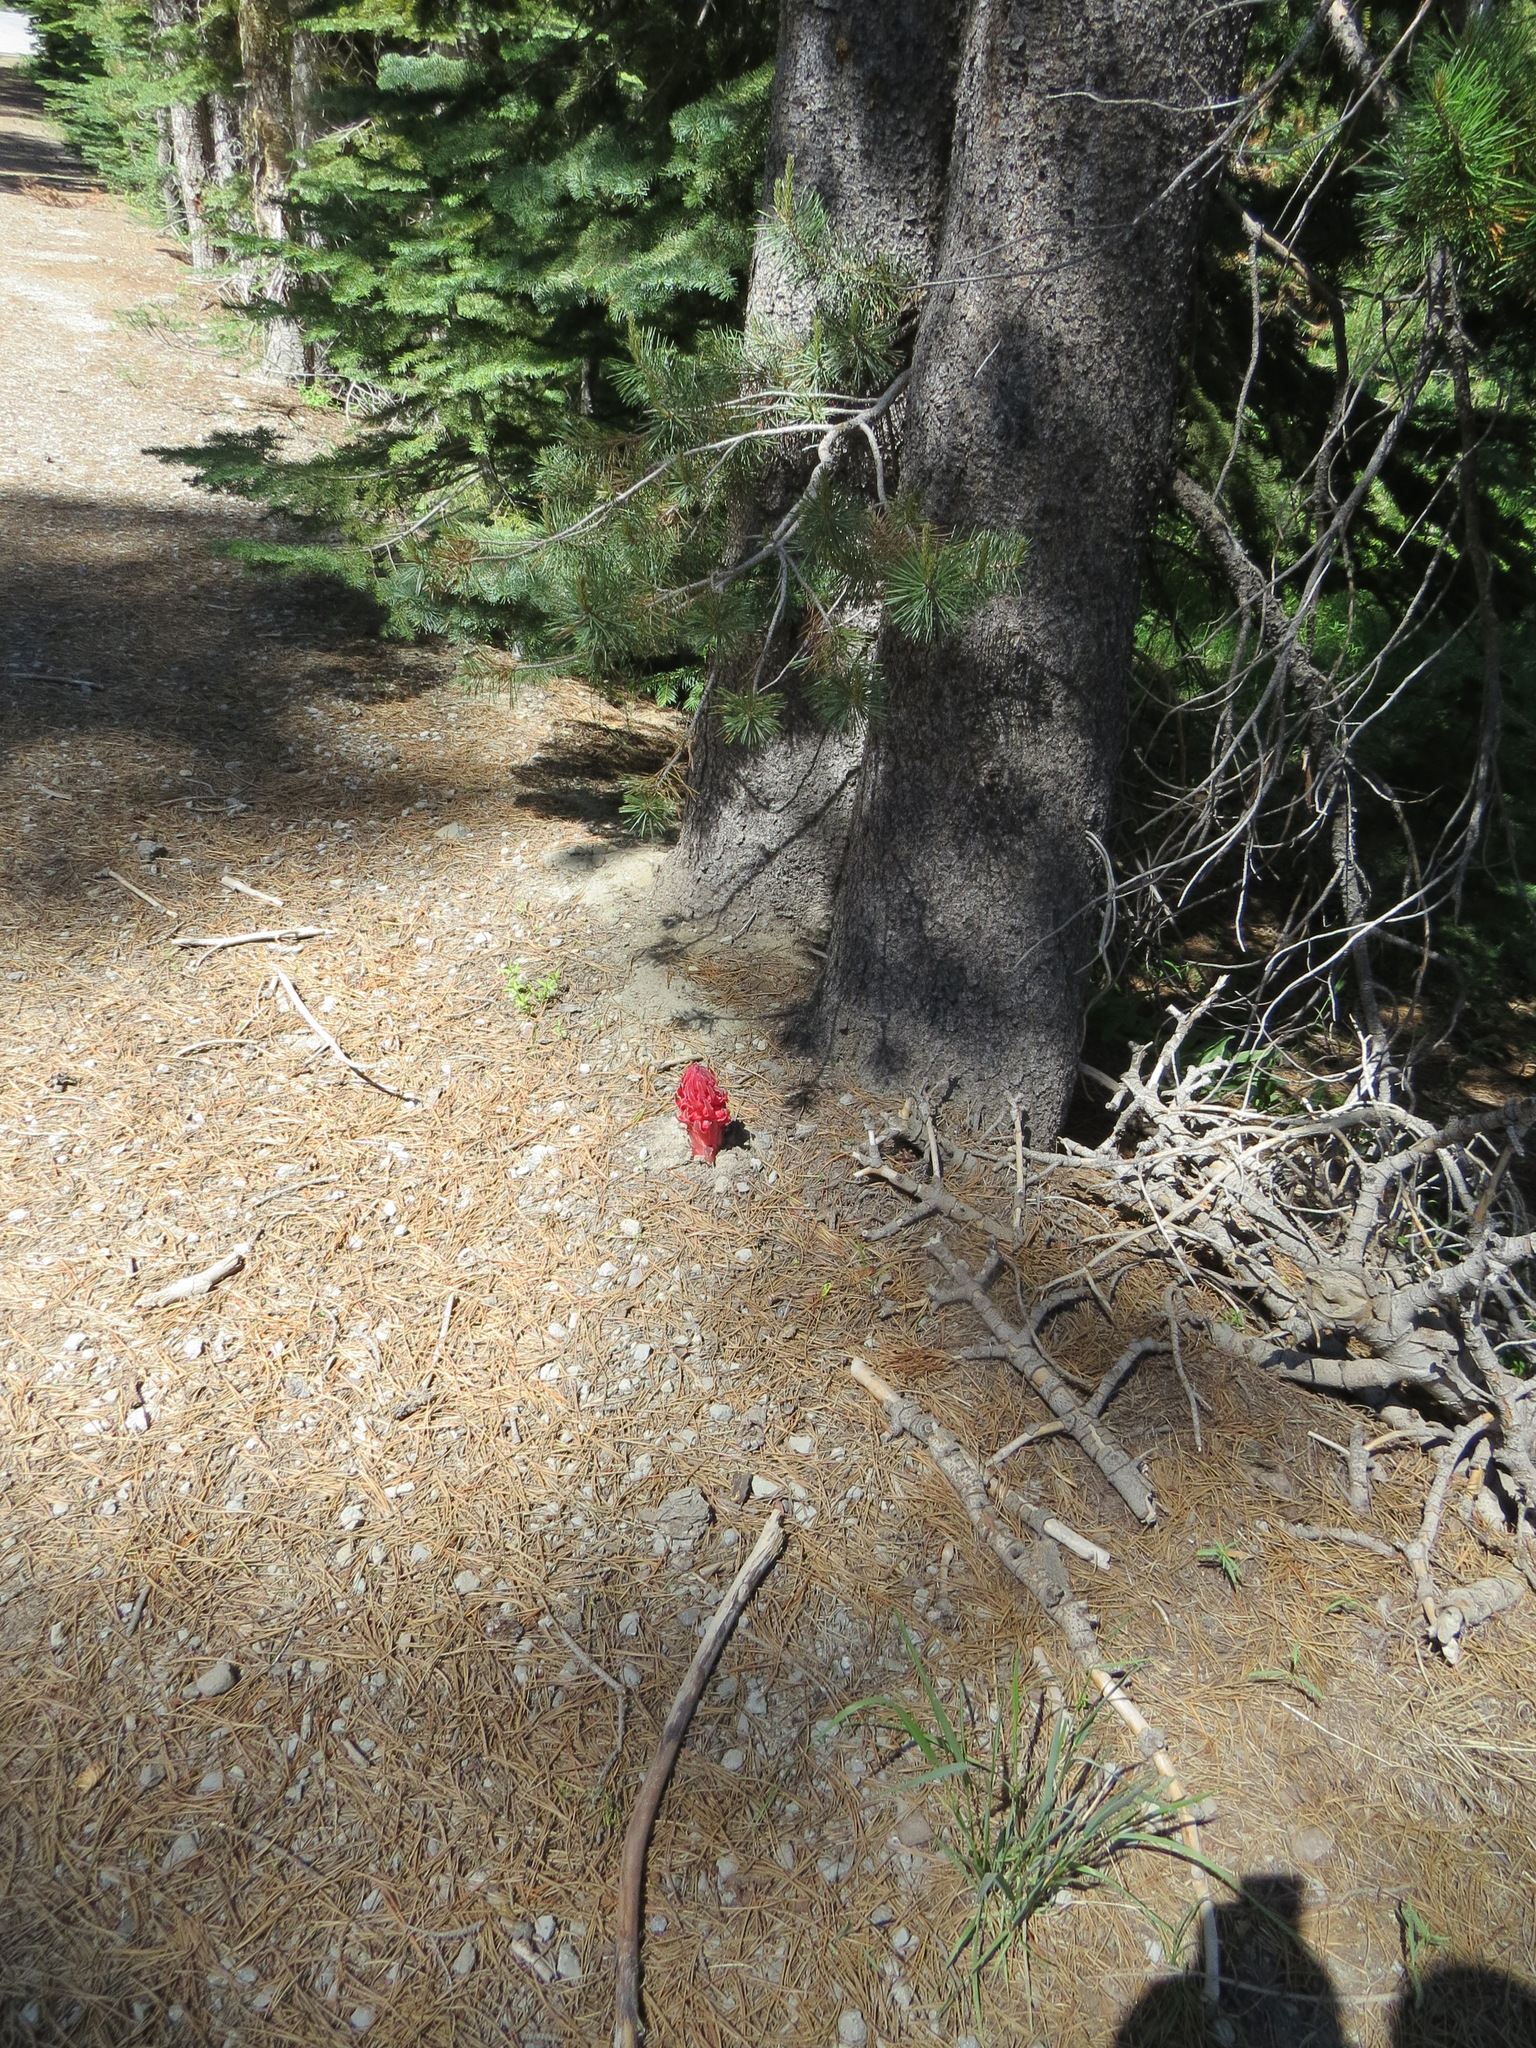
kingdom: Plantae
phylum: Tracheophyta
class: Magnoliopsida
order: Ericales
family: Ericaceae
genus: Sarcodes
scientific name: Sarcodes sanguinea
